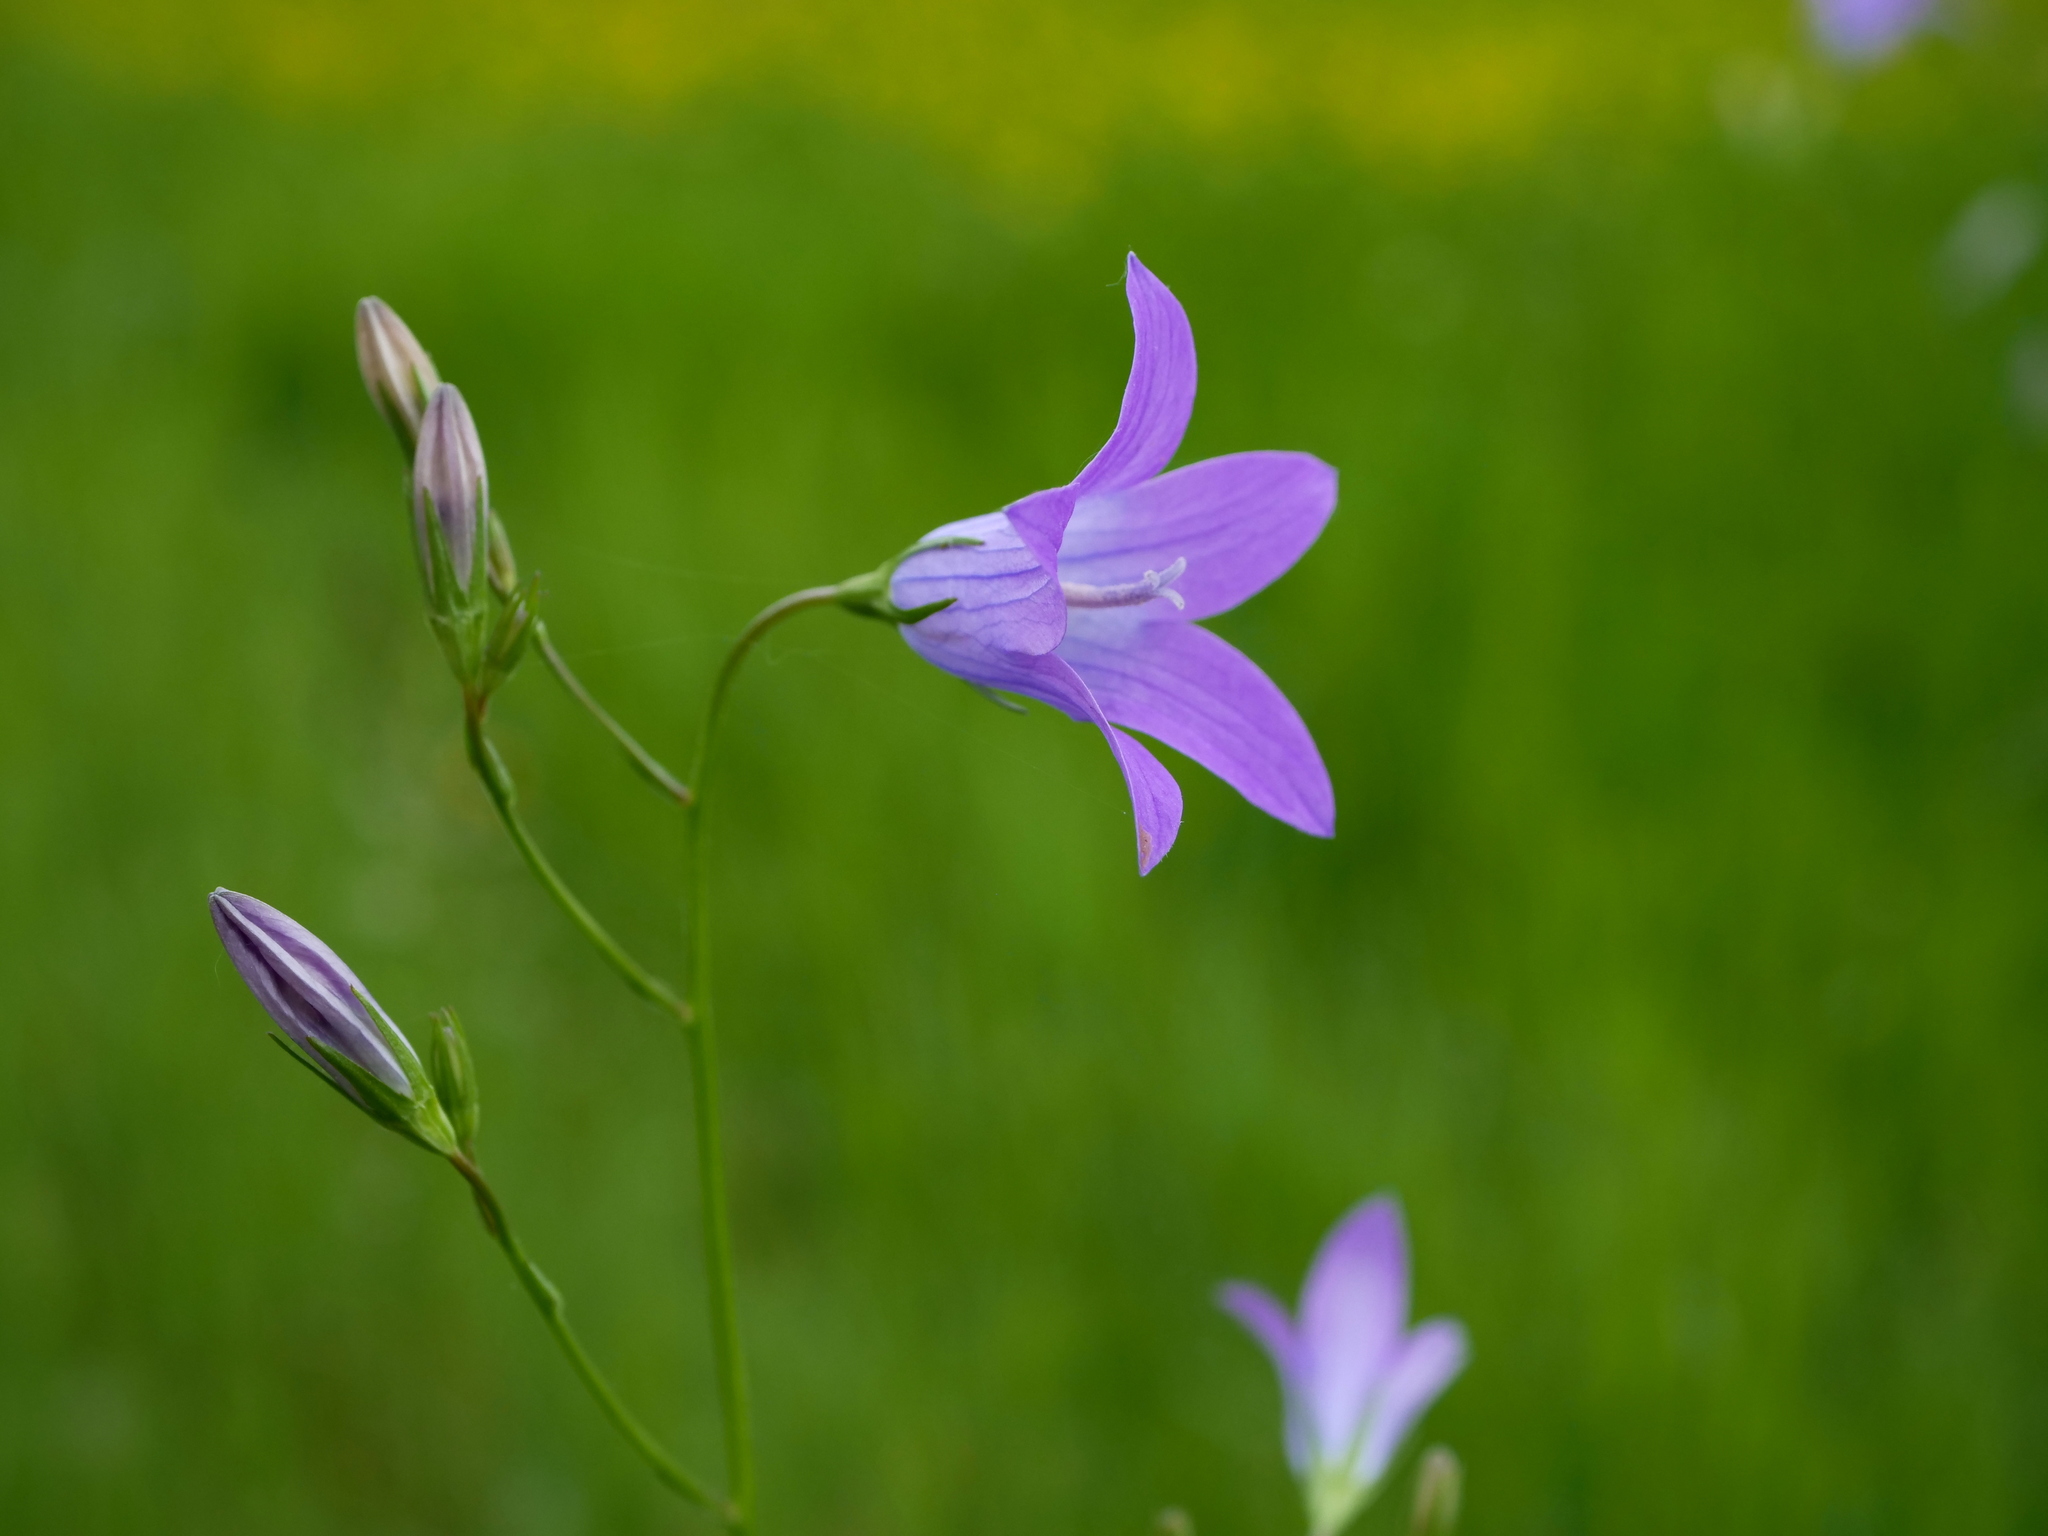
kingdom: Plantae
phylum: Tracheophyta
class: Magnoliopsida
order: Asterales
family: Campanulaceae
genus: Campanula
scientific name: Campanula patula
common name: Spreading bellflower
